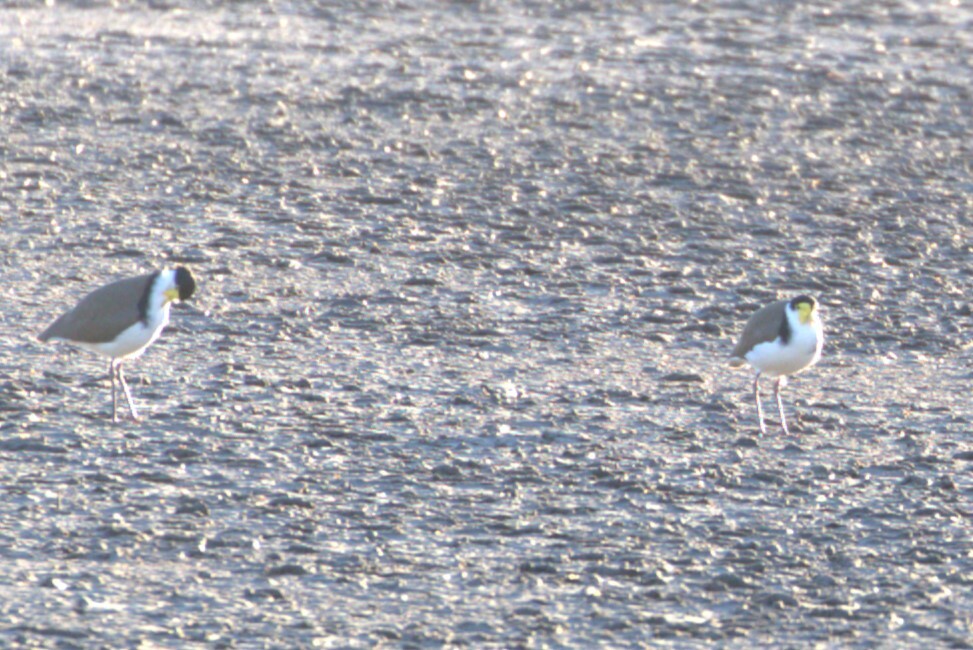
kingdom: Animalia
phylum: Chordata
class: Aves
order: Charadriiformes
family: Charadriidae
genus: Vanellus
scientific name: Vanellus miles
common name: Masked lapwing
